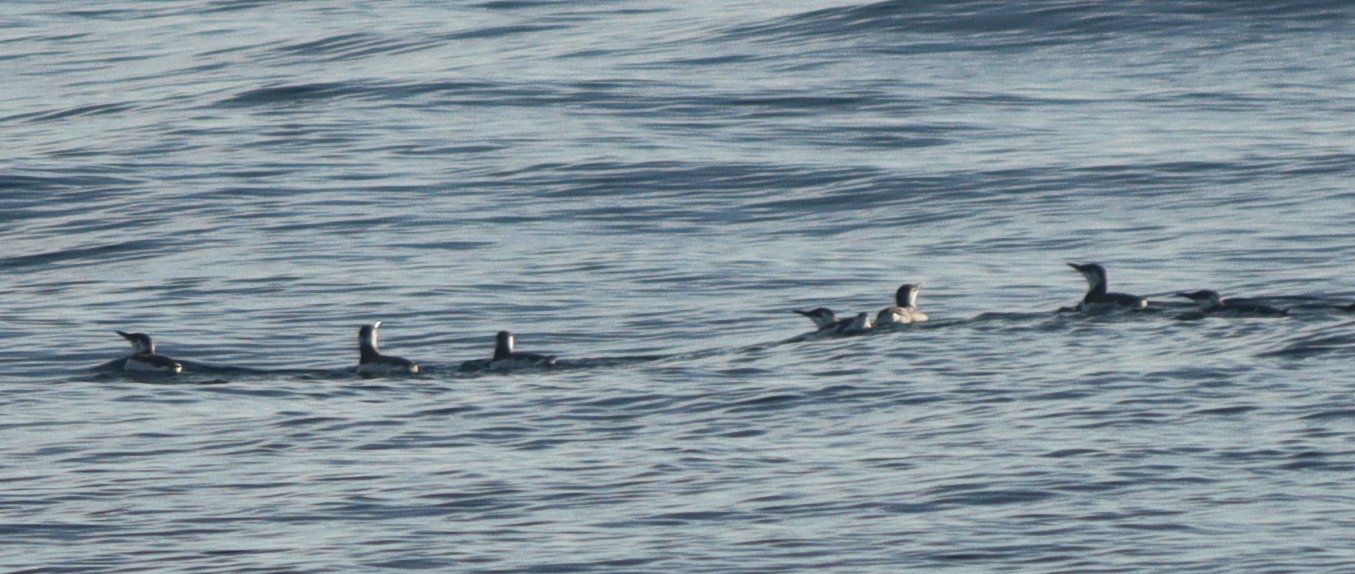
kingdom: Animalia
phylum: Chordata
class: Aves
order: Charadriiformes
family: Alcidae
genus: Uria
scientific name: Uria aalge
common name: Common murre
